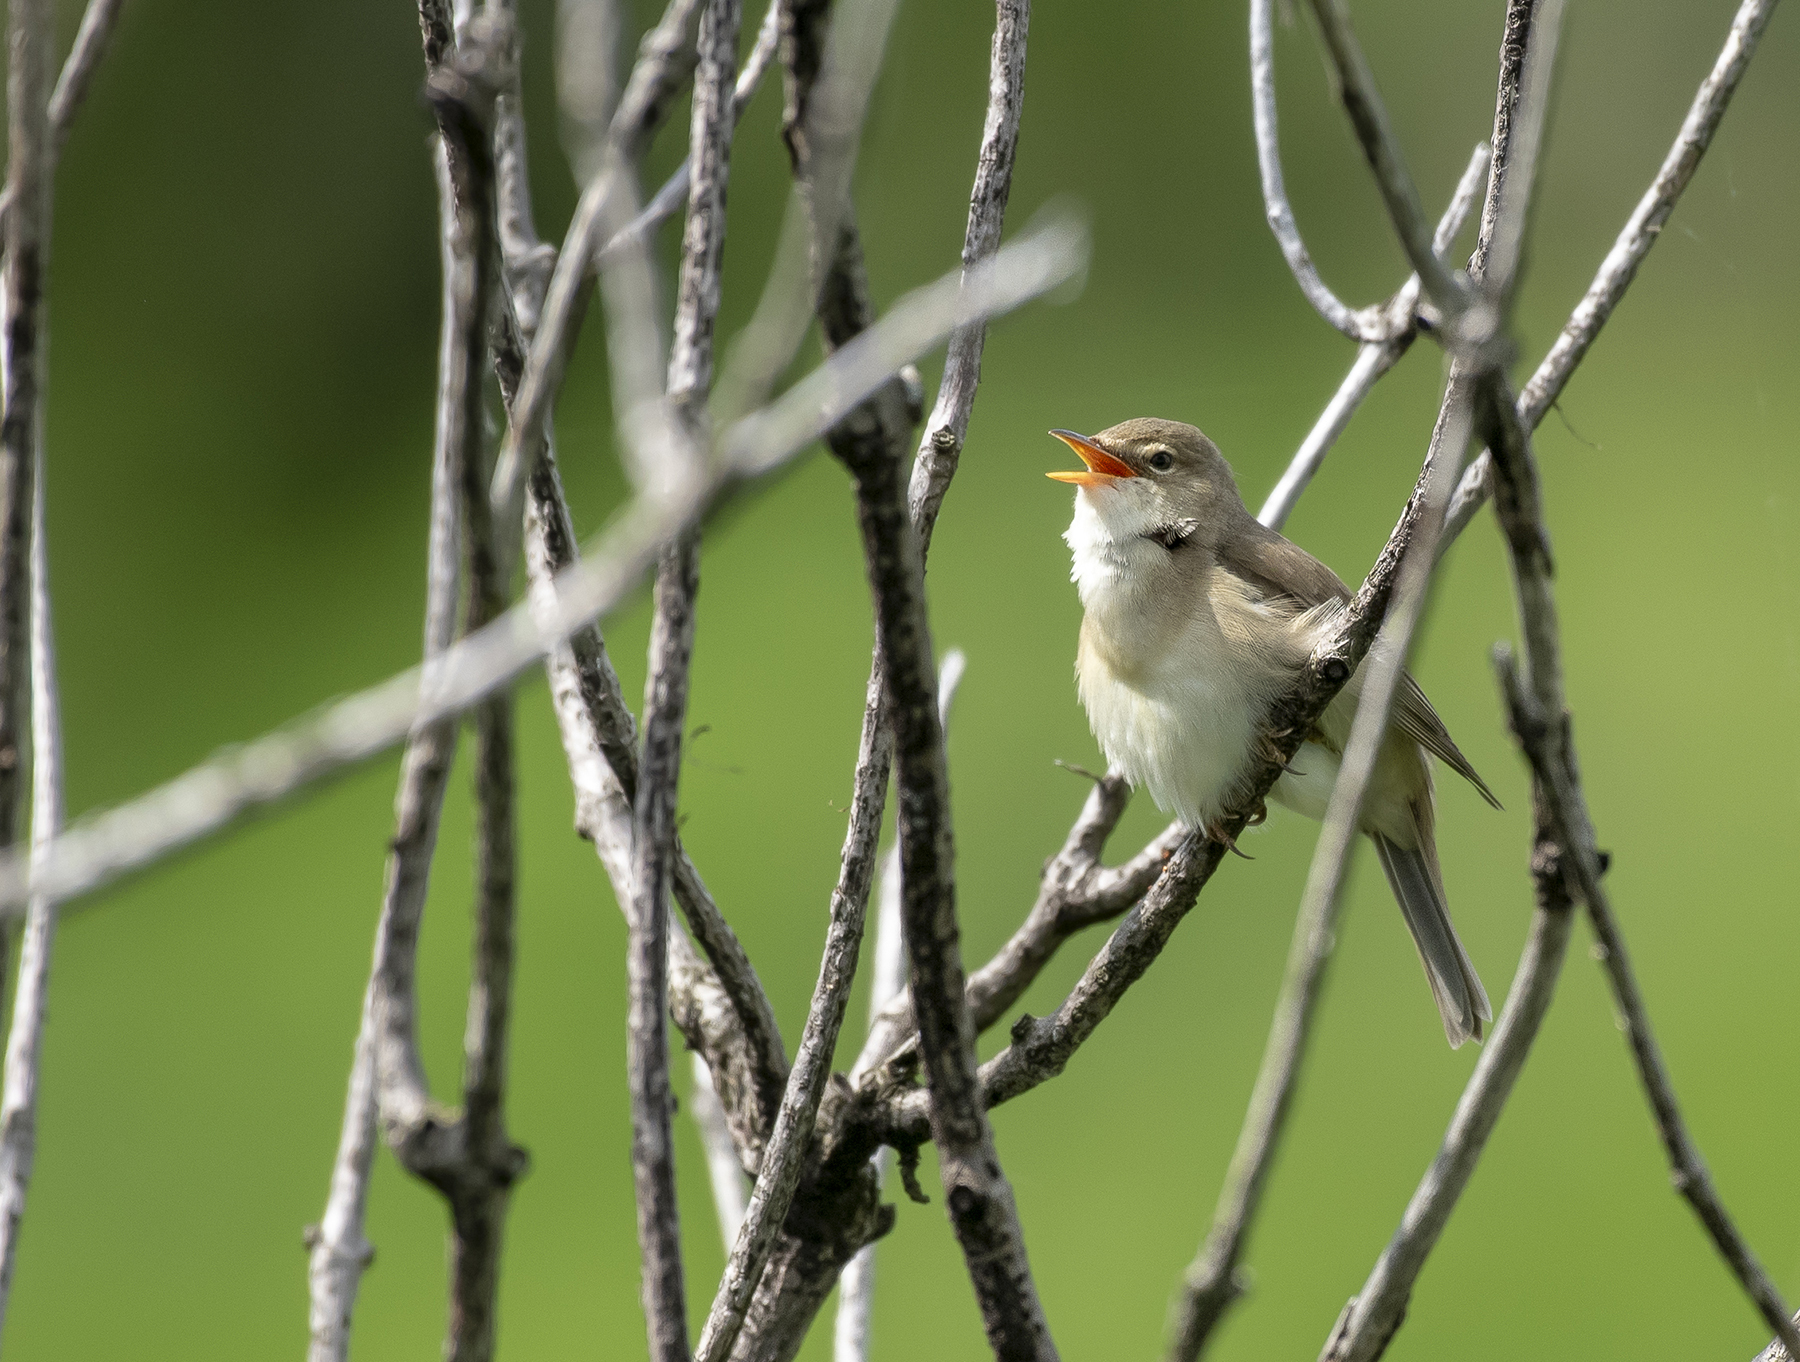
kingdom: Animalia
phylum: Chordata
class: Aves
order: Passeriformes
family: Acrocephalidae
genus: Acrocephalus
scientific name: Acrocephalus palustris
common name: Marsh warbler
